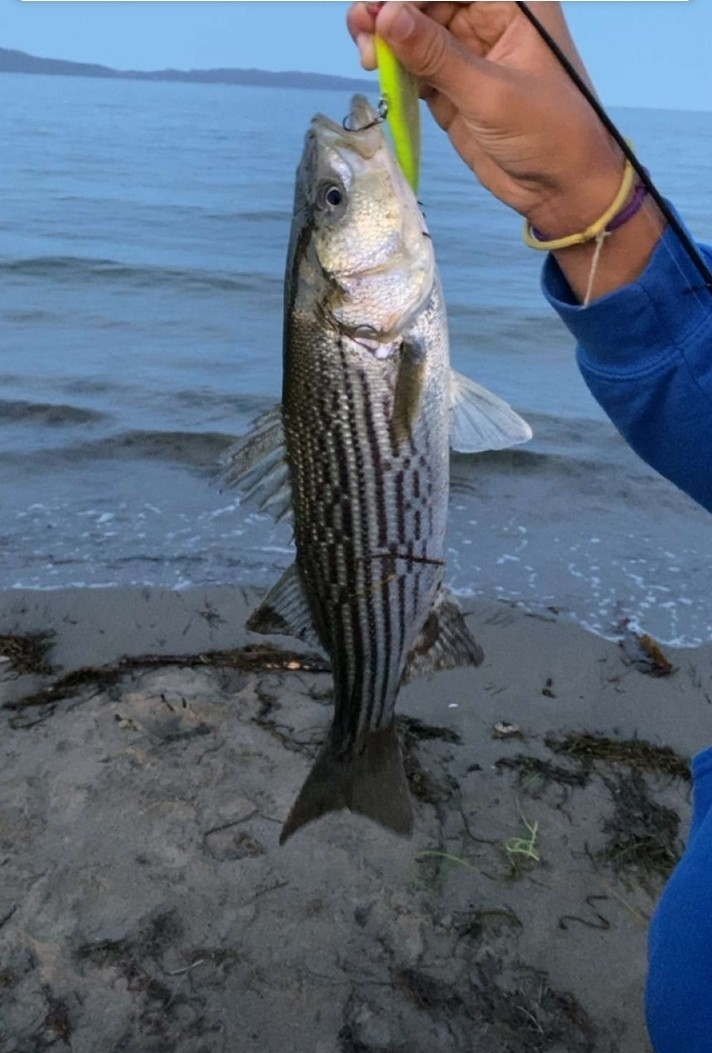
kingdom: Animalia
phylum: Chordata
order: Perciformes
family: Moronidae
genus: Morone
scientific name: Morone saxatilis
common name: Striped bass
